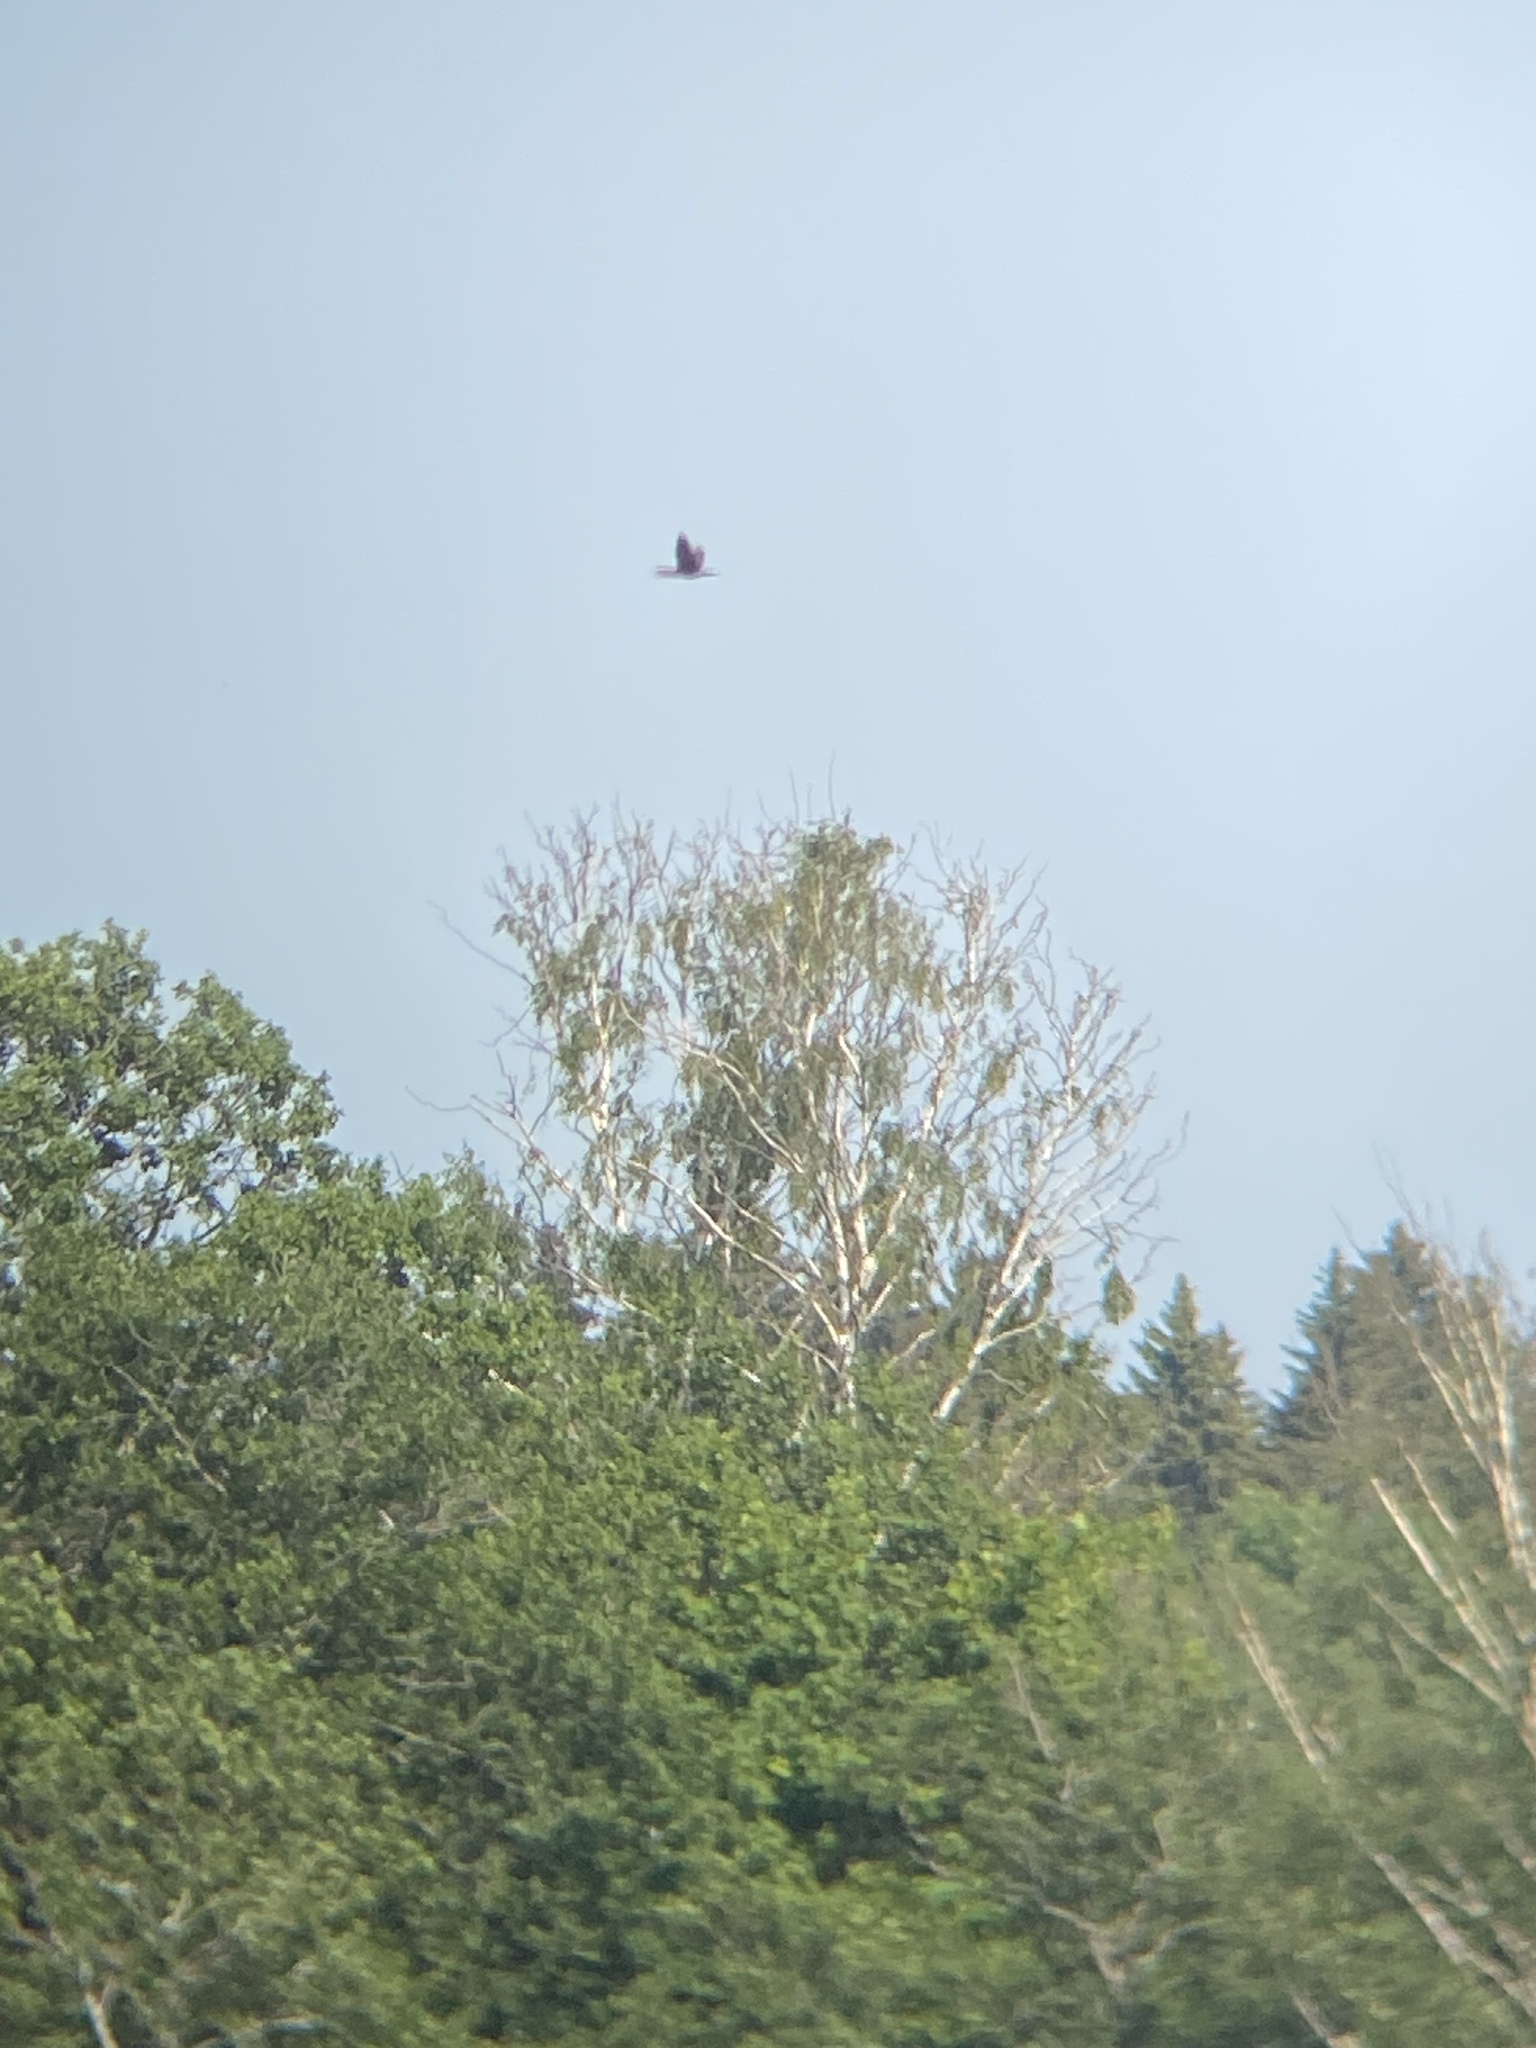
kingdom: Animalia
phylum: Chordata
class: Aves
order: Suliformes
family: Phalacrocoracidae
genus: Phalacrocorax
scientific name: Phalacrocorax carbo
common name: Great cormorant
